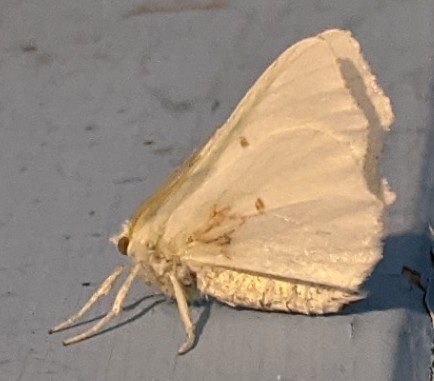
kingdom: Animalia
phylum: Arthropoda
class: Insecta
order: Lepidoptera
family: Geometridae
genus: Ennomos
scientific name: Ennomos subsignaria
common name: Elm spanworm
